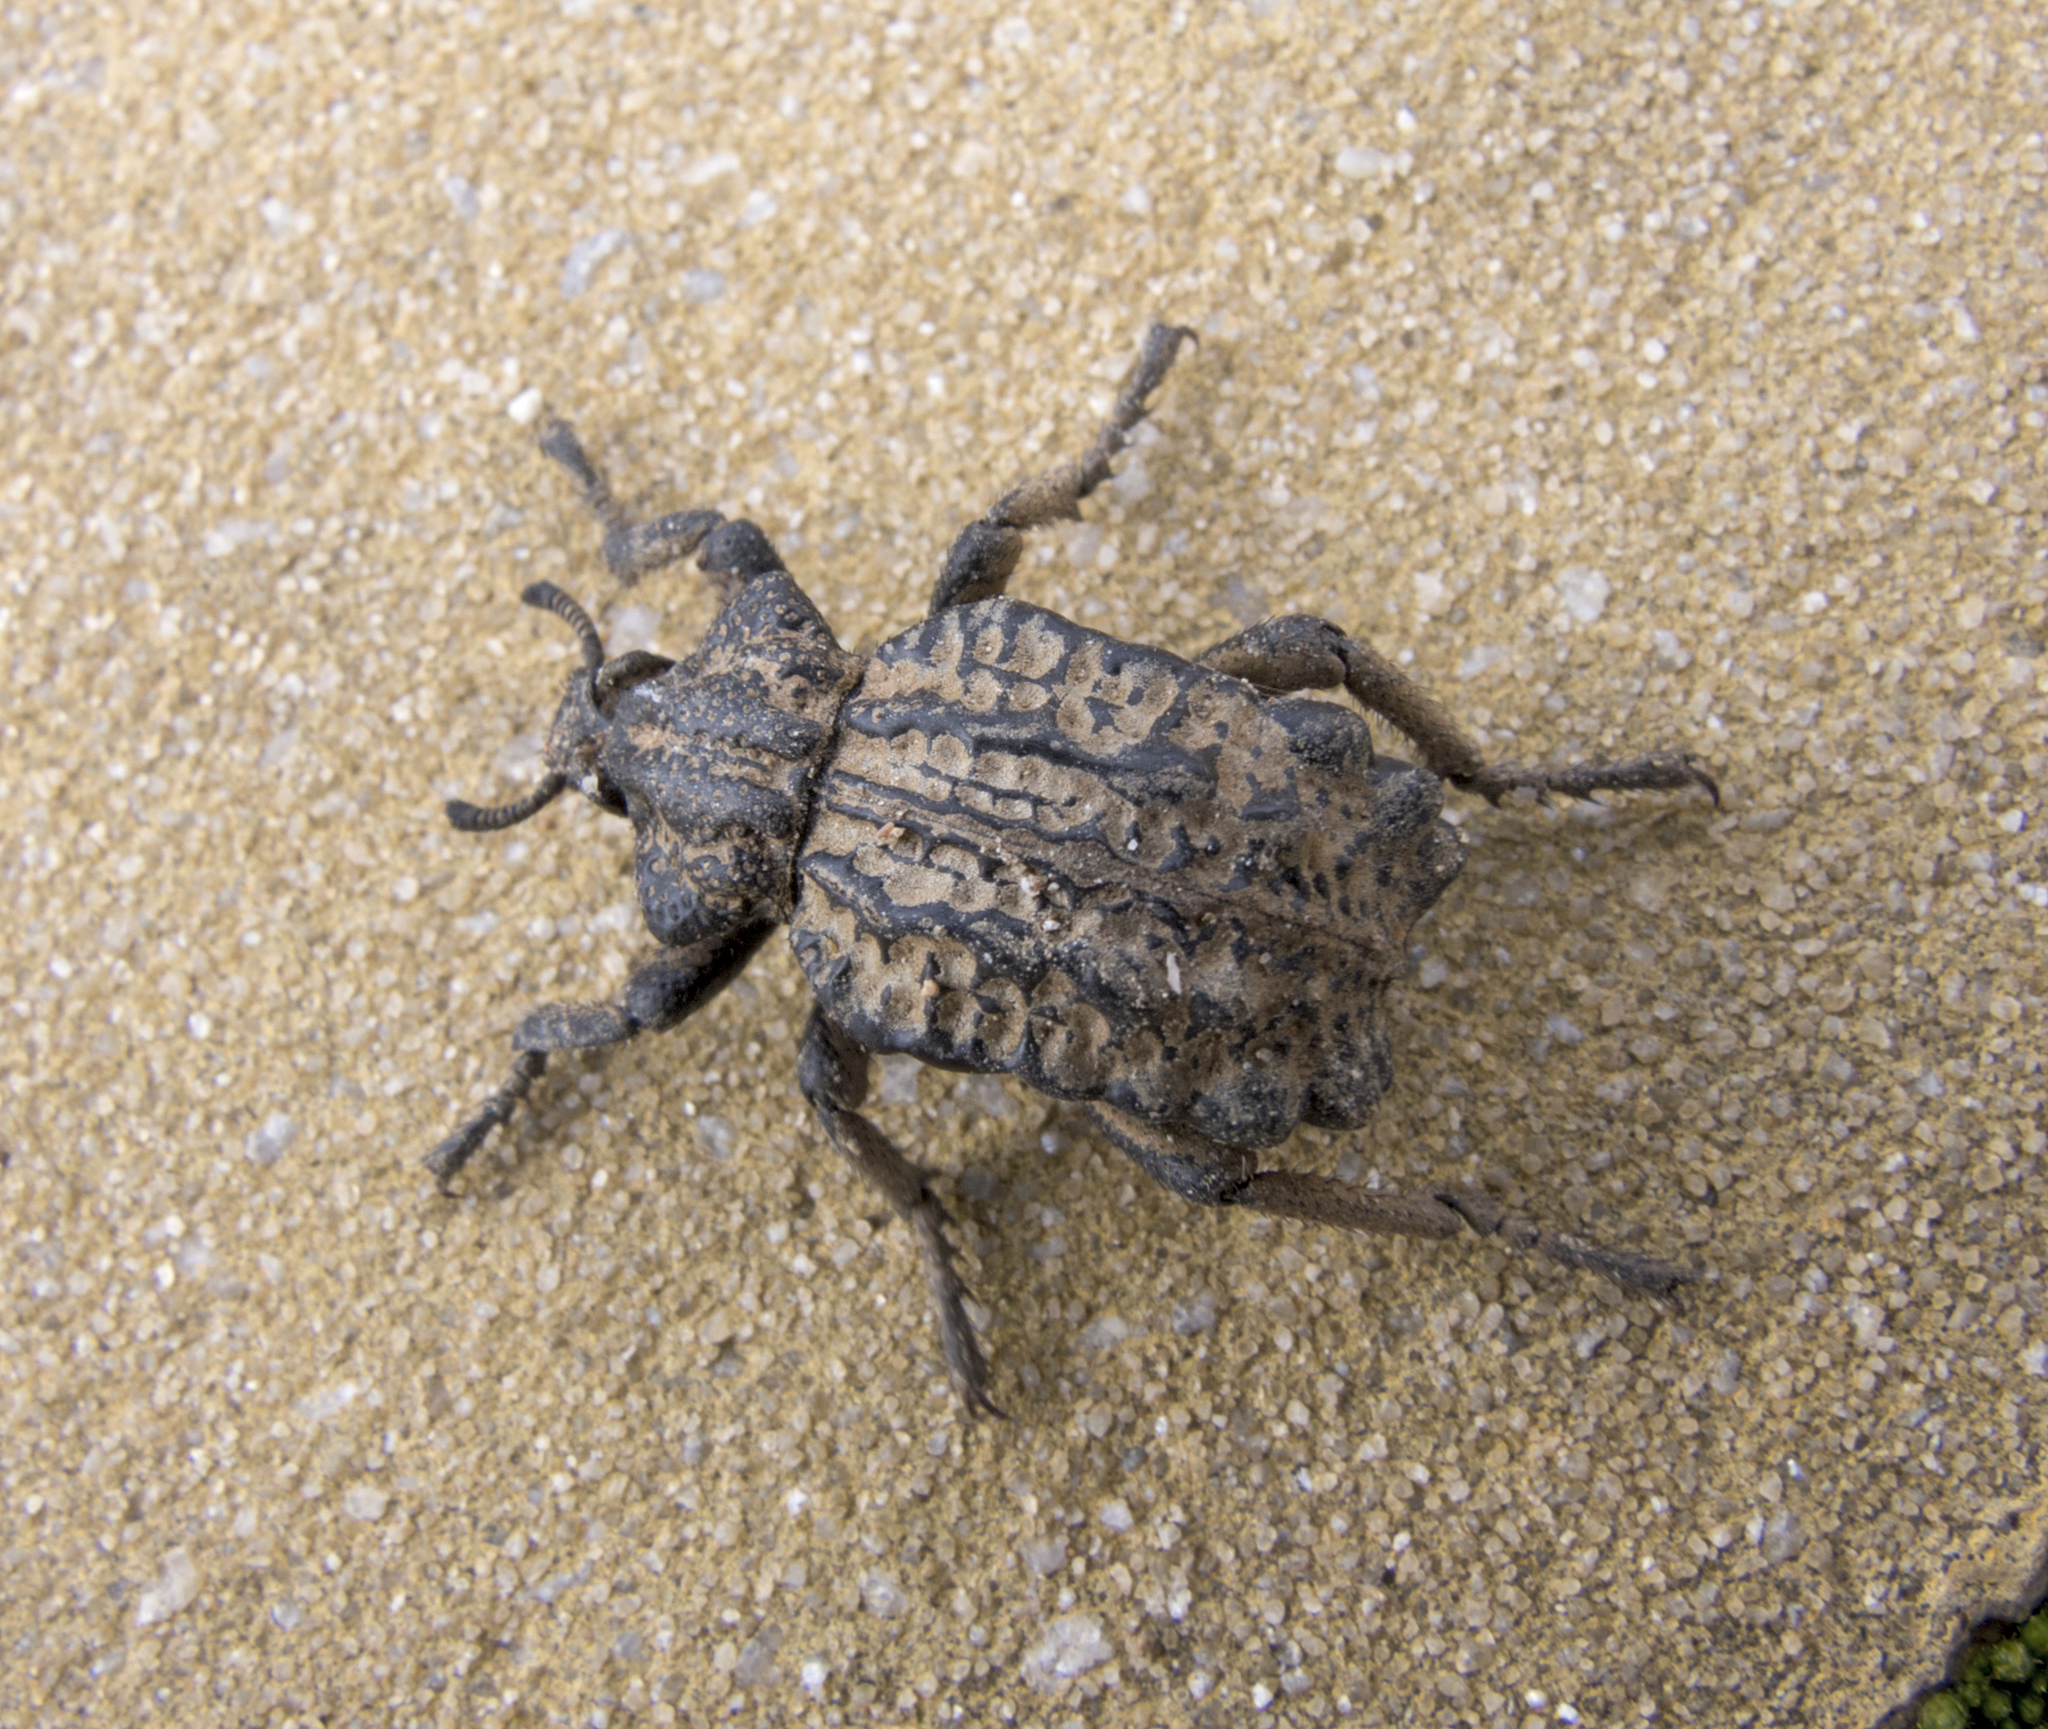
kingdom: Animalia
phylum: Arthropoda
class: Insecta
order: Coleoptera
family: Brachyceridae
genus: Brachycerus
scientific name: Brachycerus undatus
